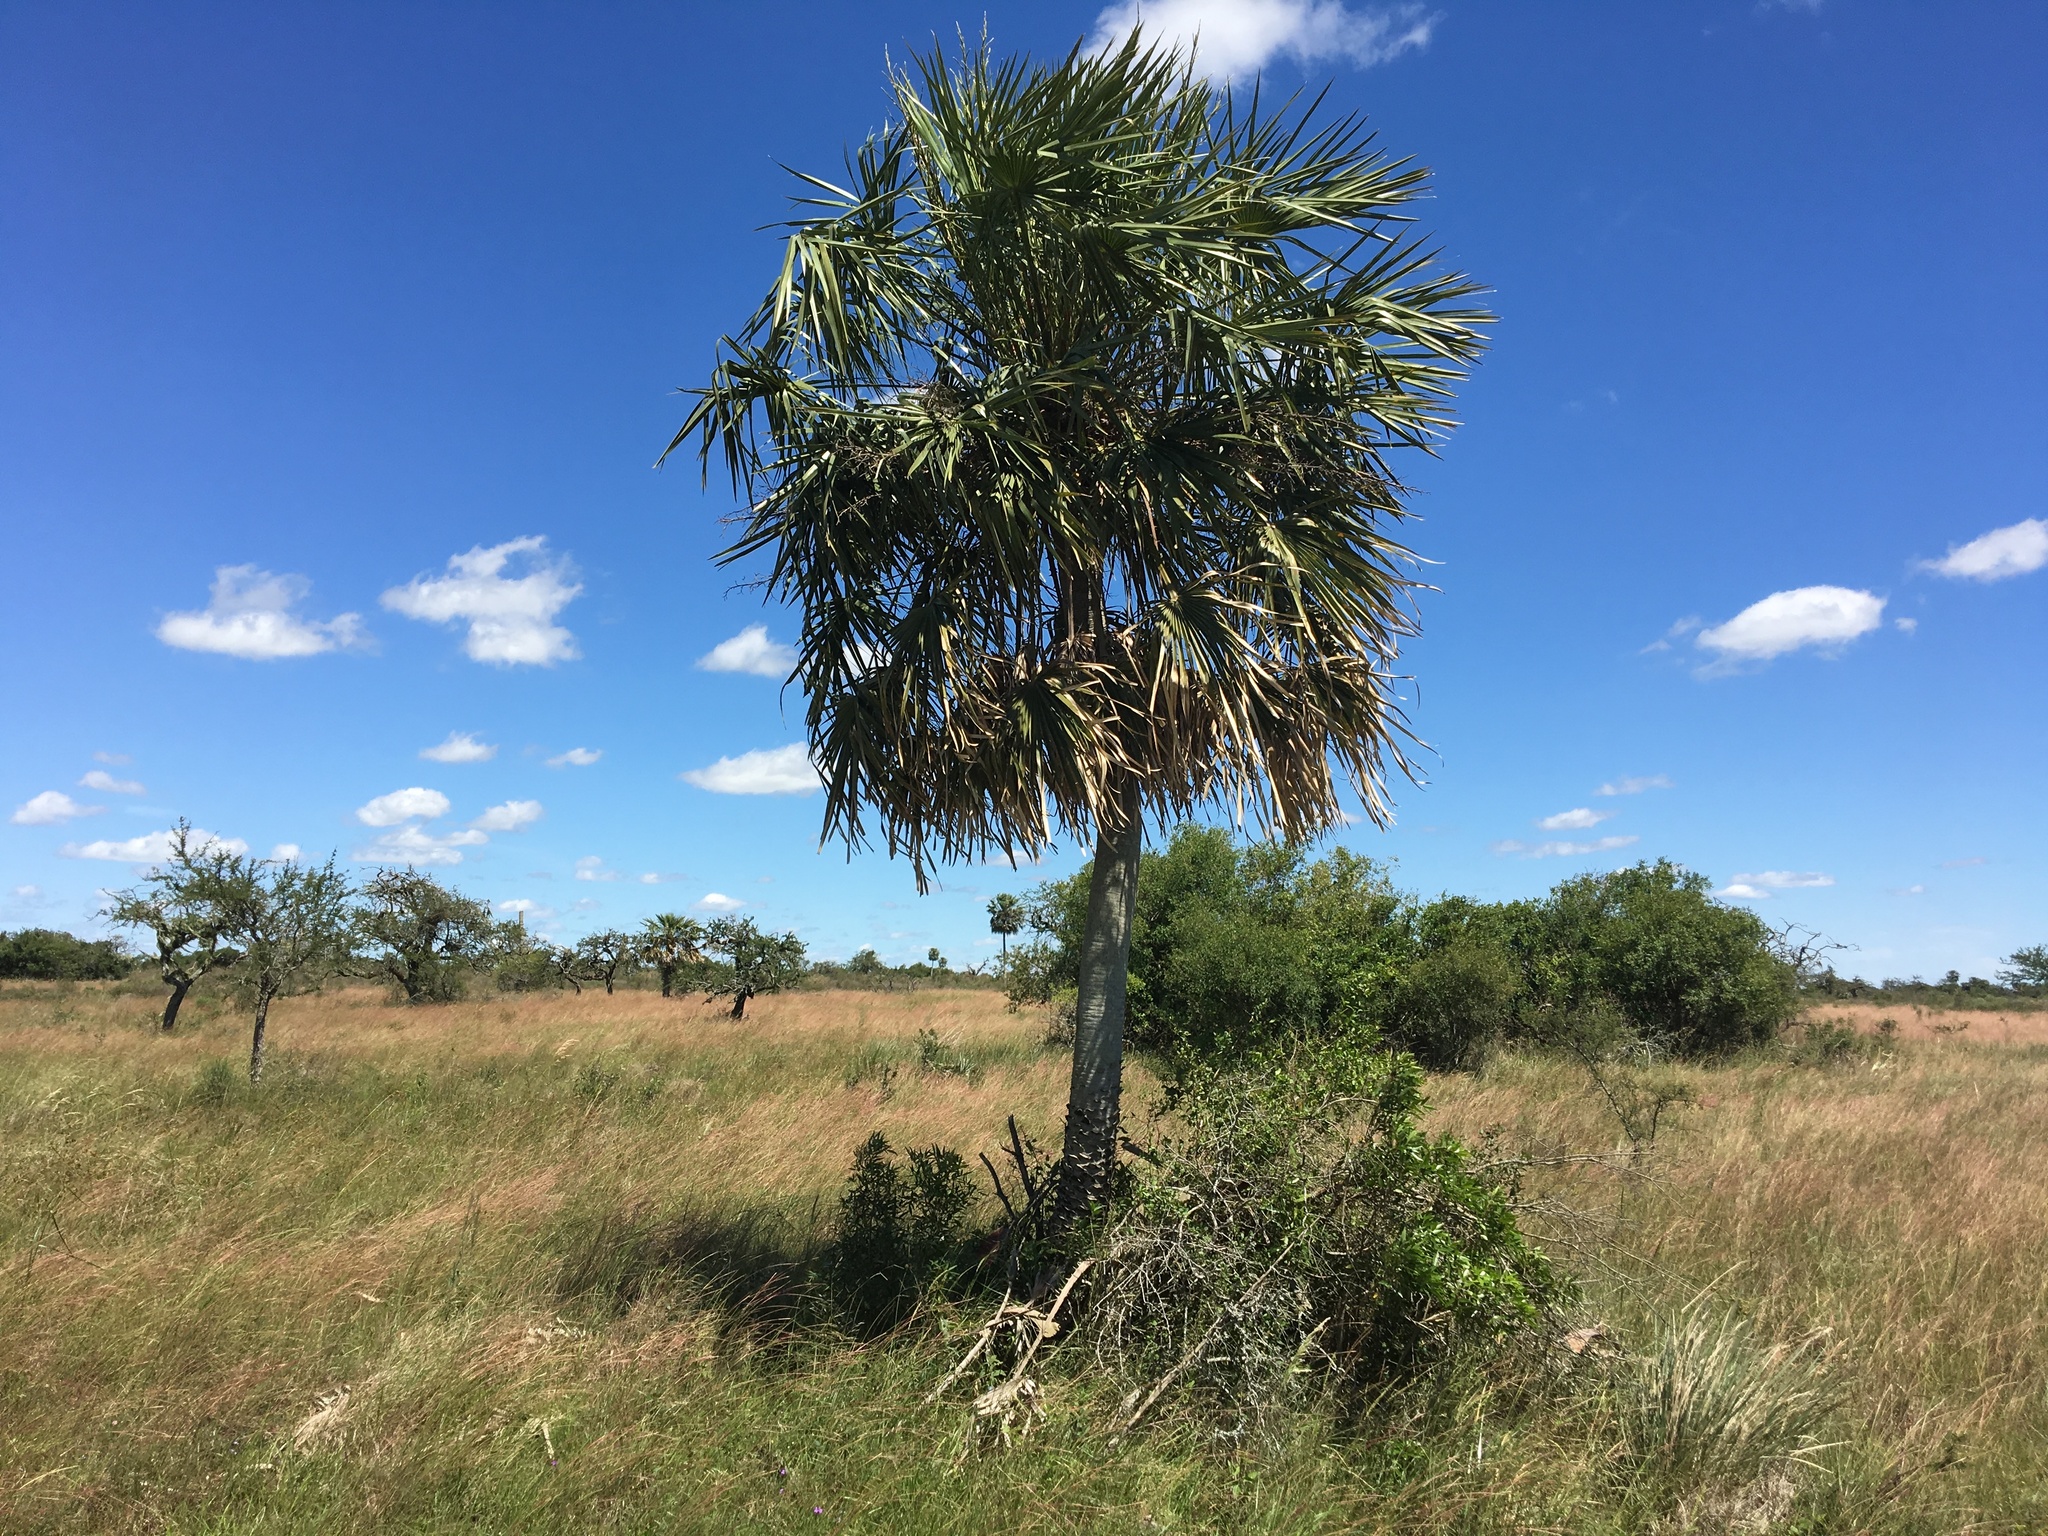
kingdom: Plantae
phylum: Tracheophyta
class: Liliopsida
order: Arecales
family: Arecaceae
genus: Copernicia
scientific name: Copernicia alba
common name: Caranday palm
